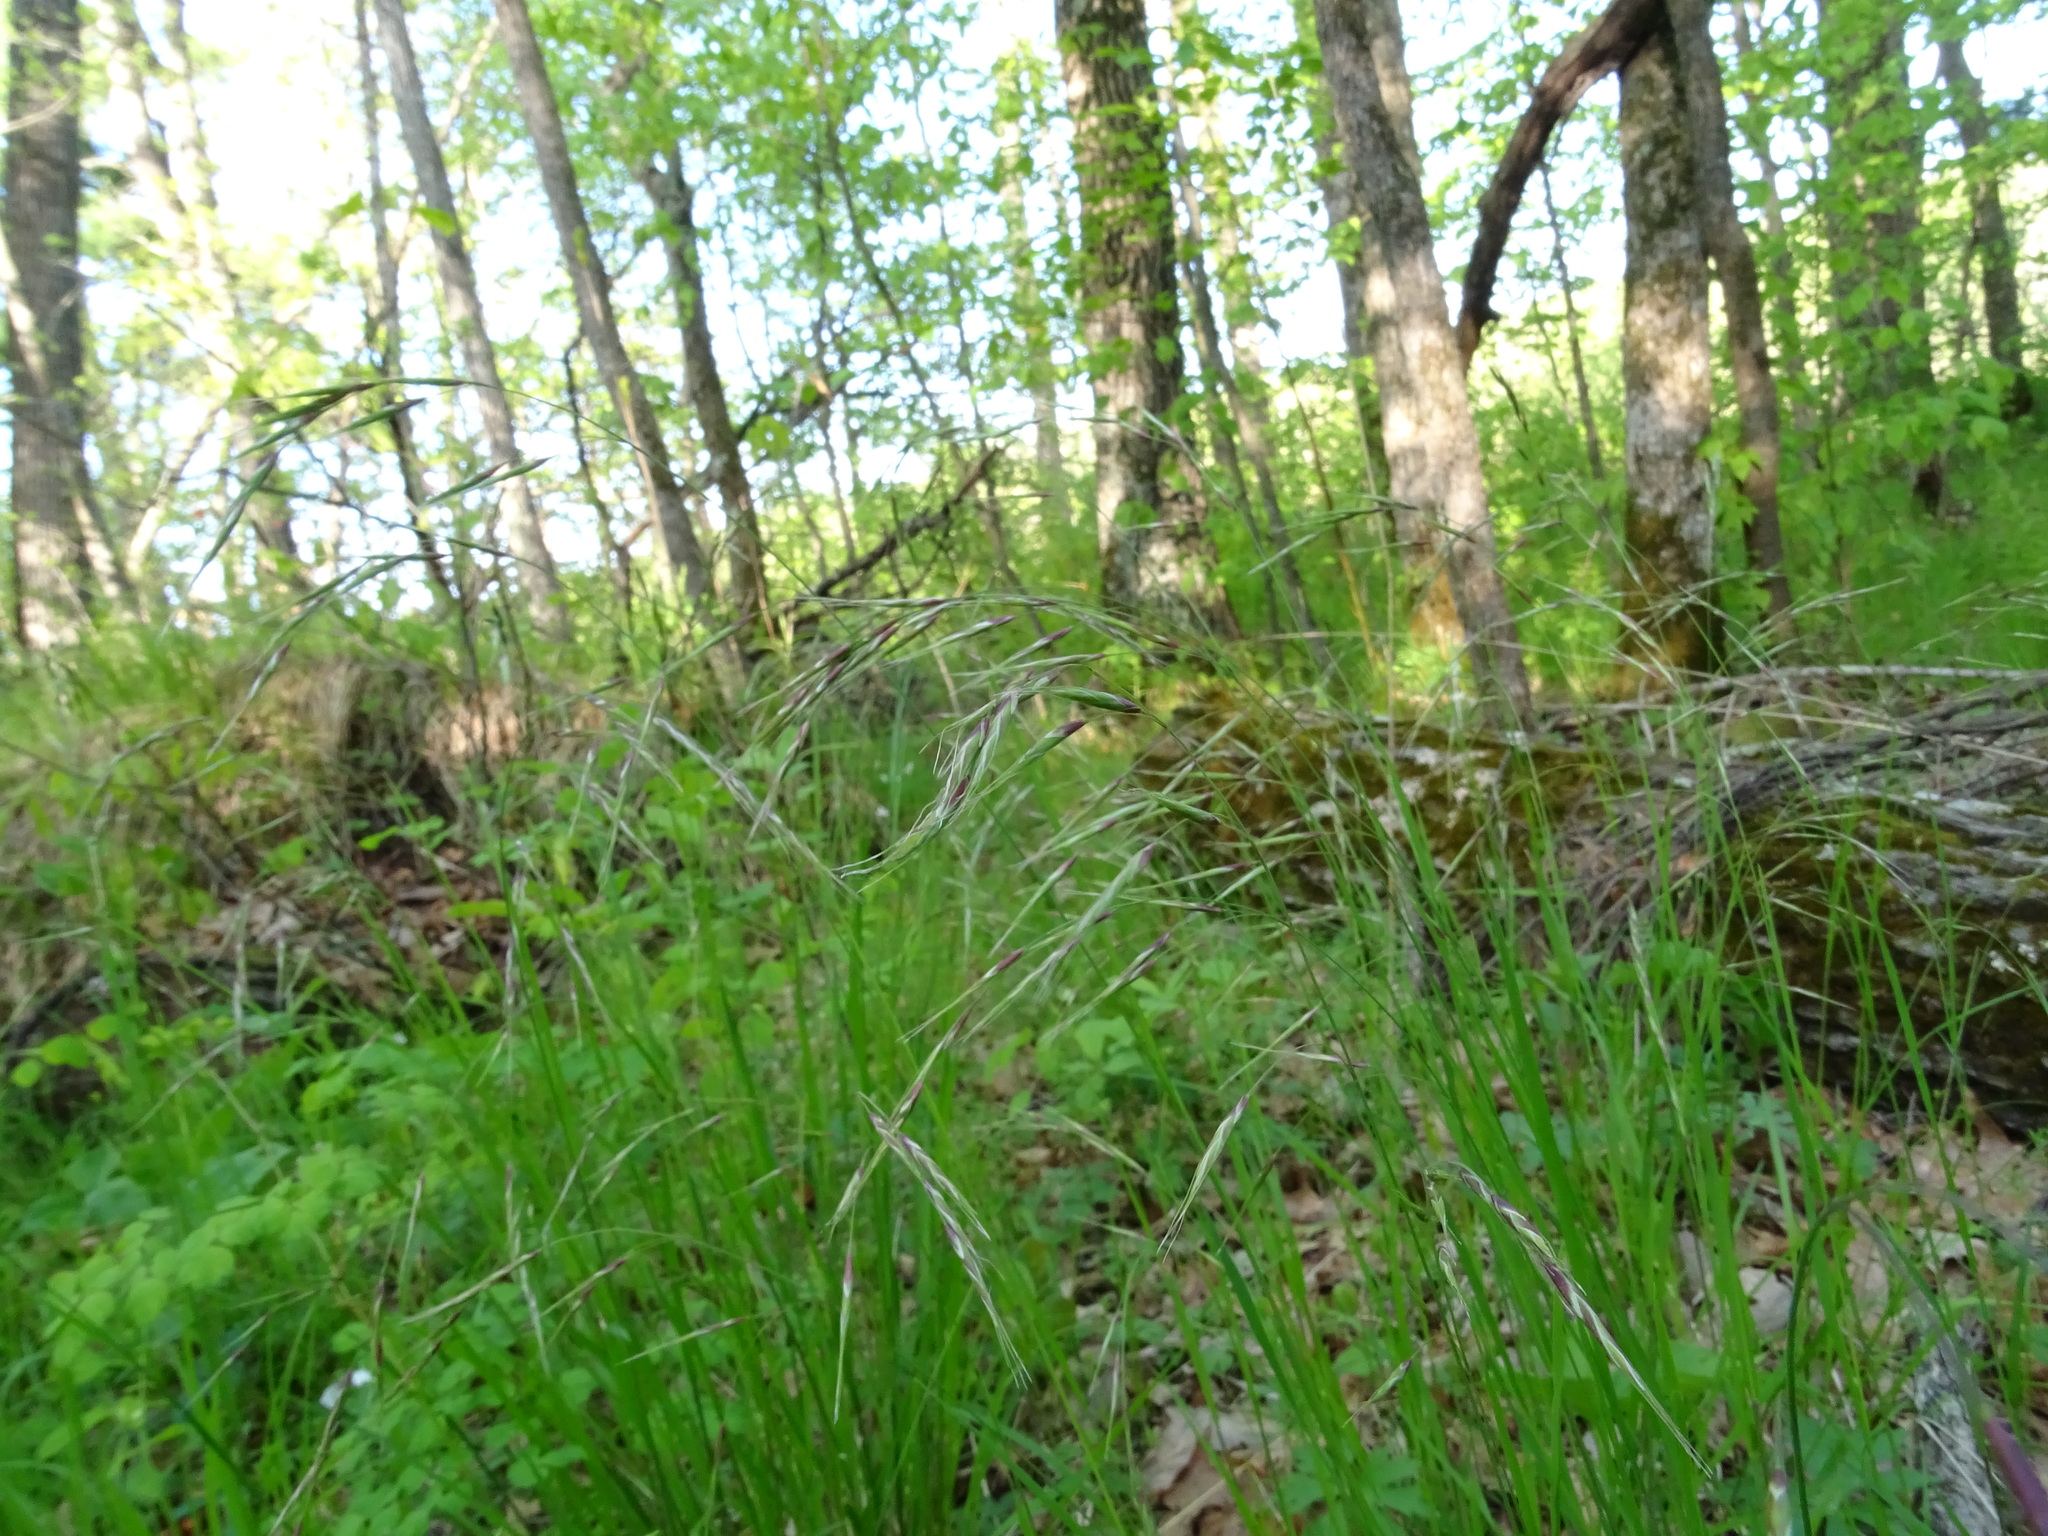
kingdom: Plantae
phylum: Tracheophyta
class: Liliopsida
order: Poales
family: Poaceae
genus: Schizachne
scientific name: Schizachne purpurascens
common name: False melic
